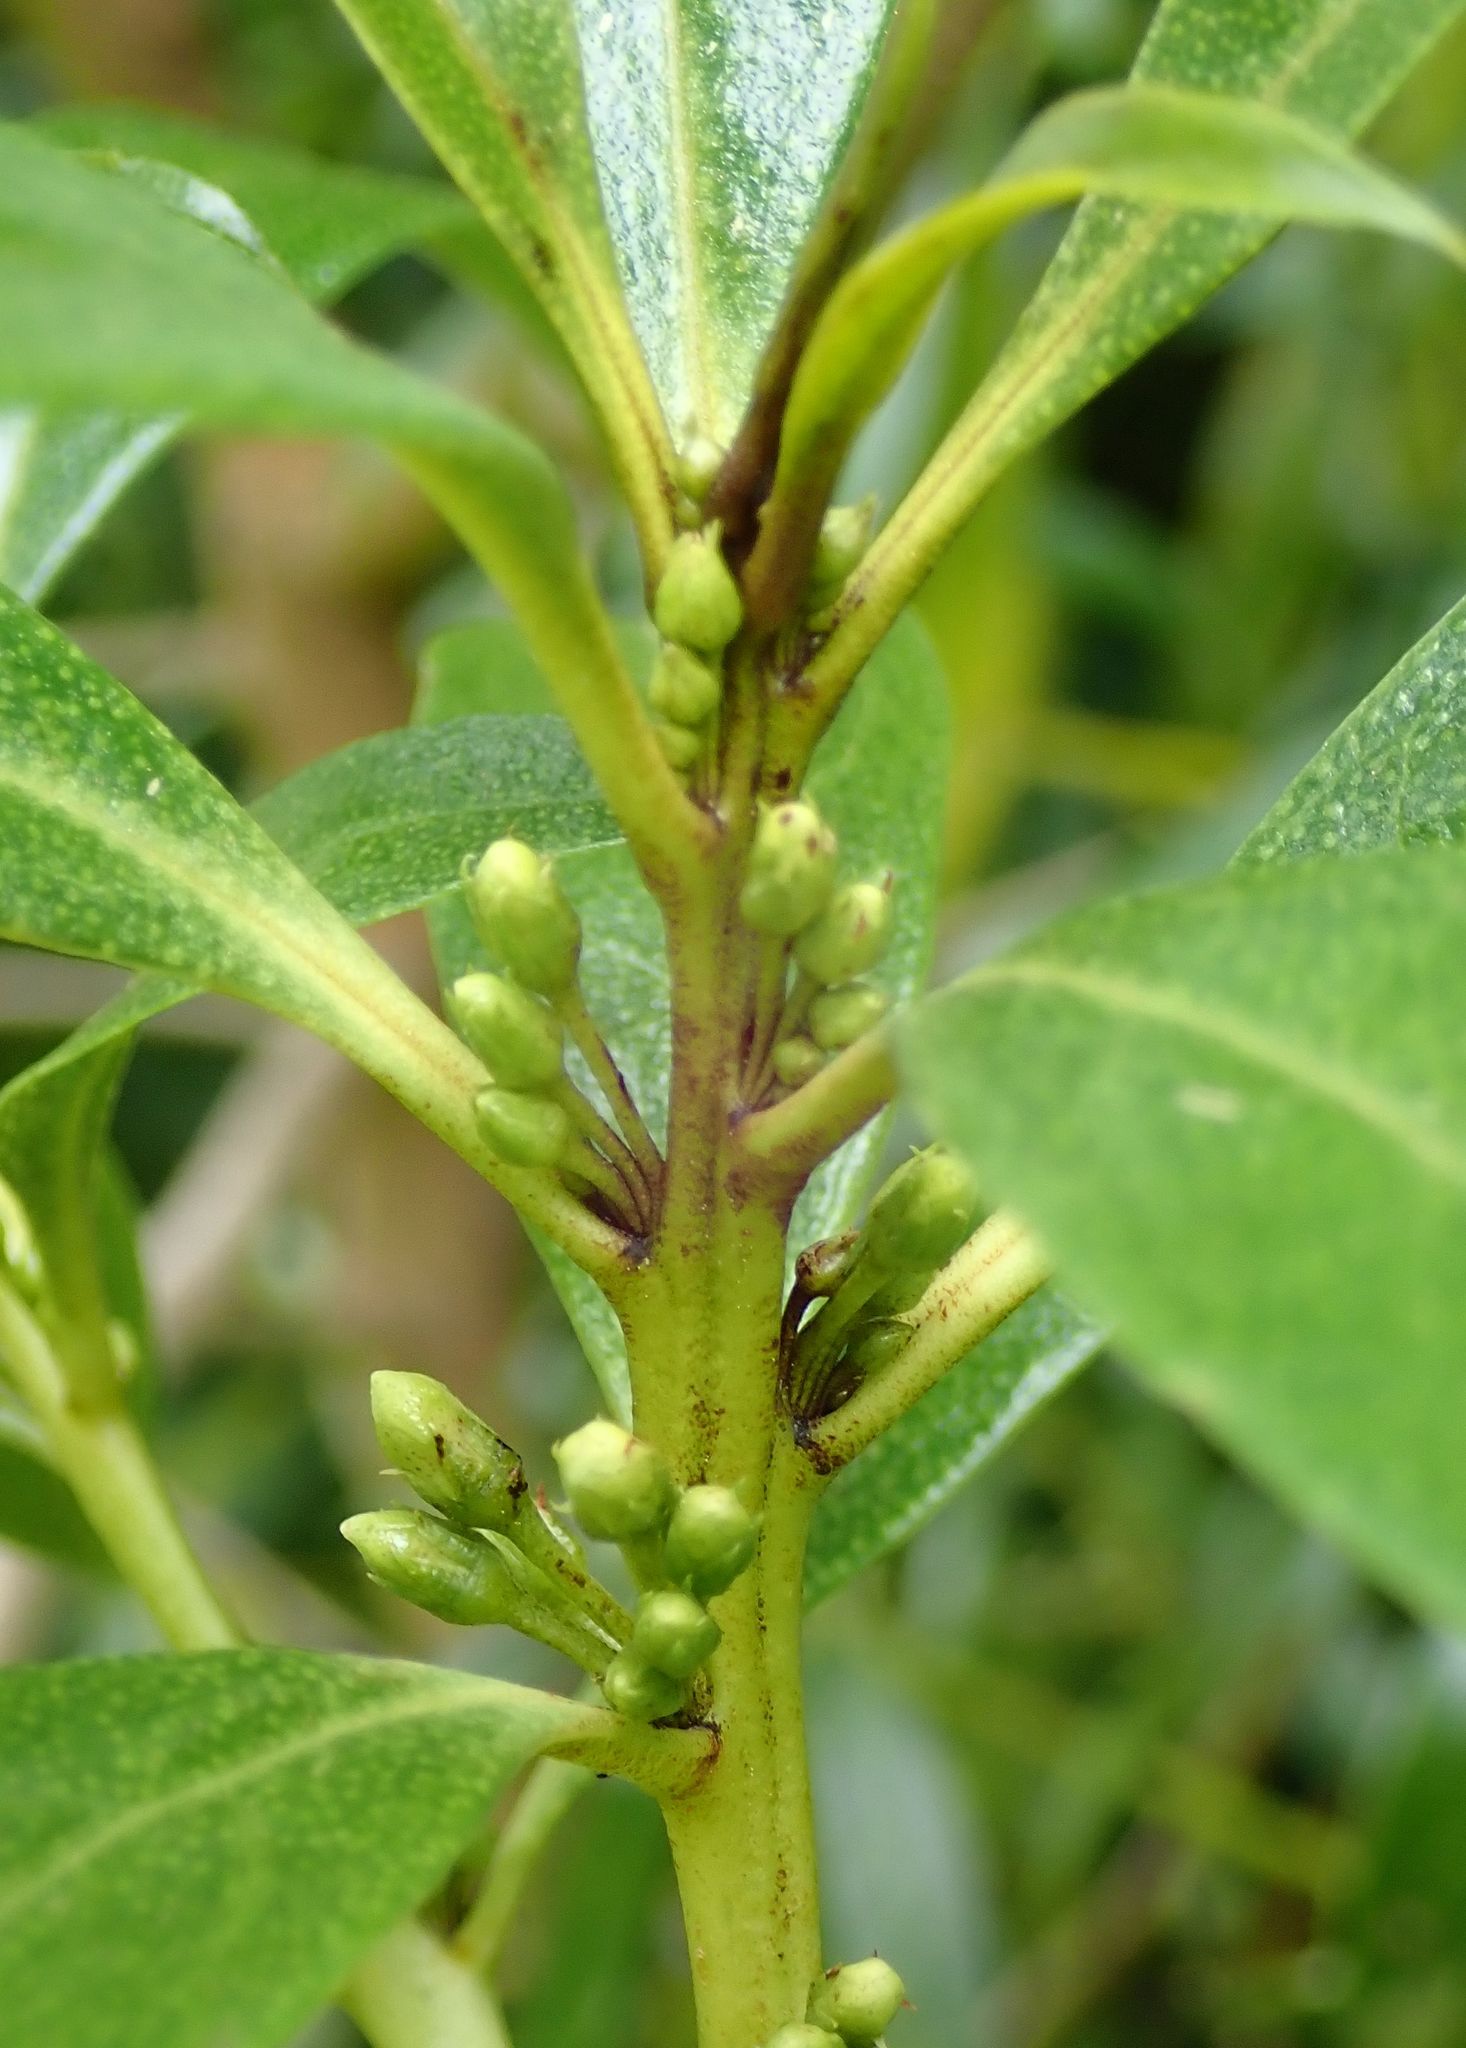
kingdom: Plantae
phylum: Tracheophyta
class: Magnoliopsida
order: Lamiales
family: Scrophulariaceae
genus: Myoporum
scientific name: Myoporum laetum
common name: Ngaio tree
